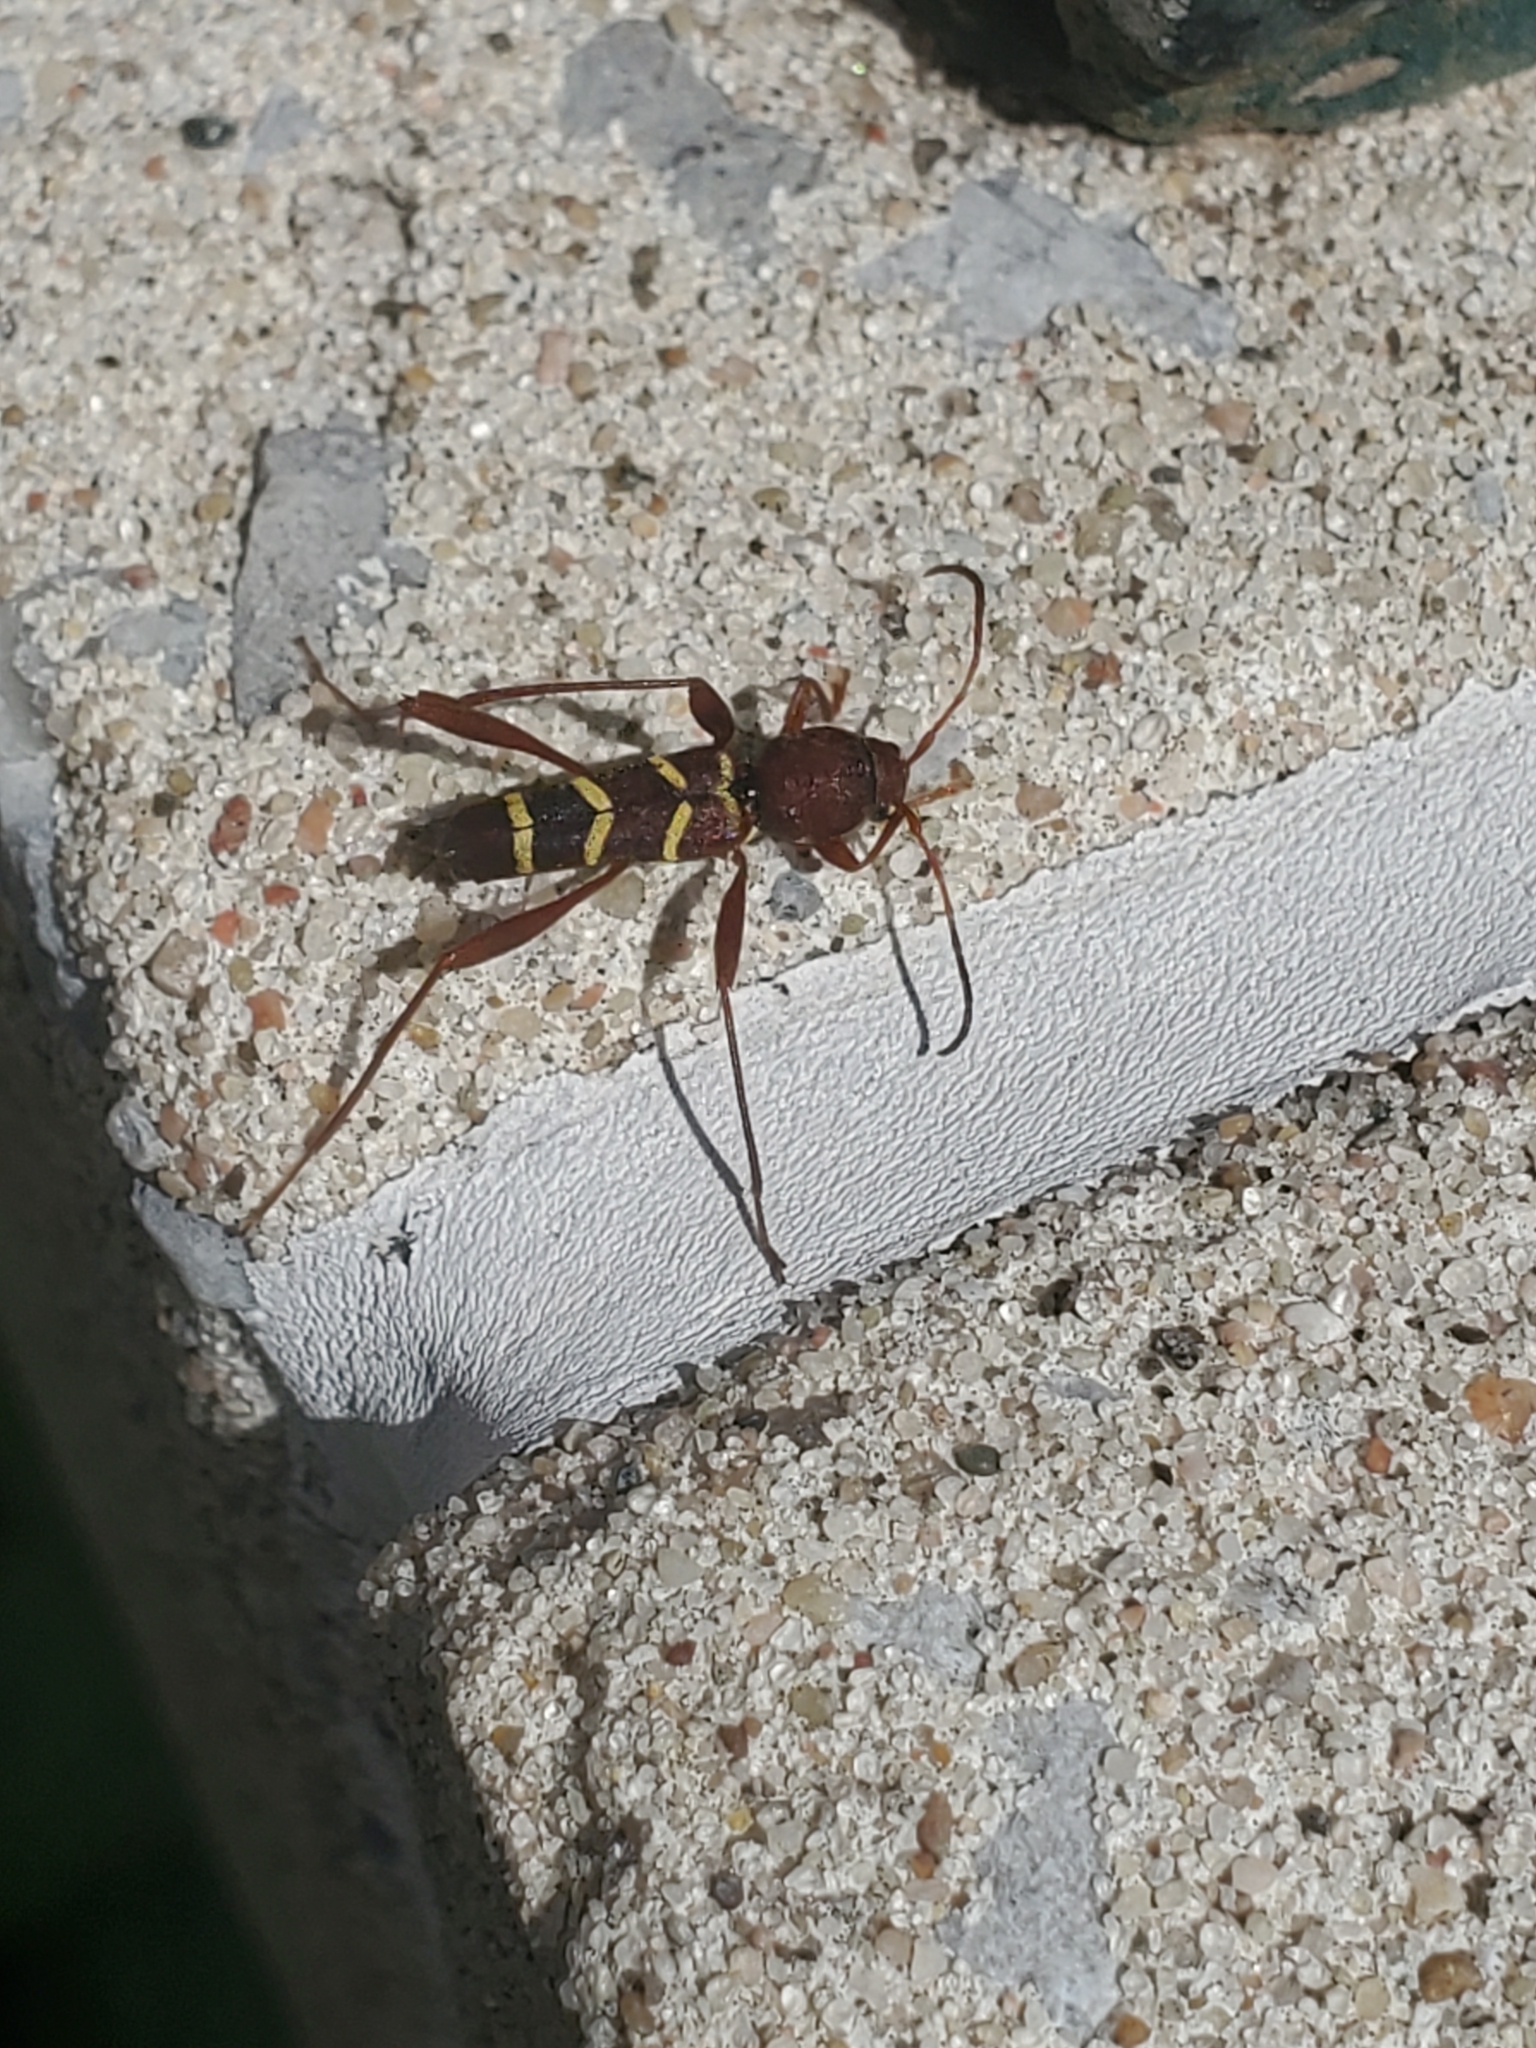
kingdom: Animalia
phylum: Arthropoda
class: Insecta
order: Coleoptera
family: Cerambycidae
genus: Neoclytus
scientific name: Neoclytus acuminatus
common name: Read-headed ash borer
